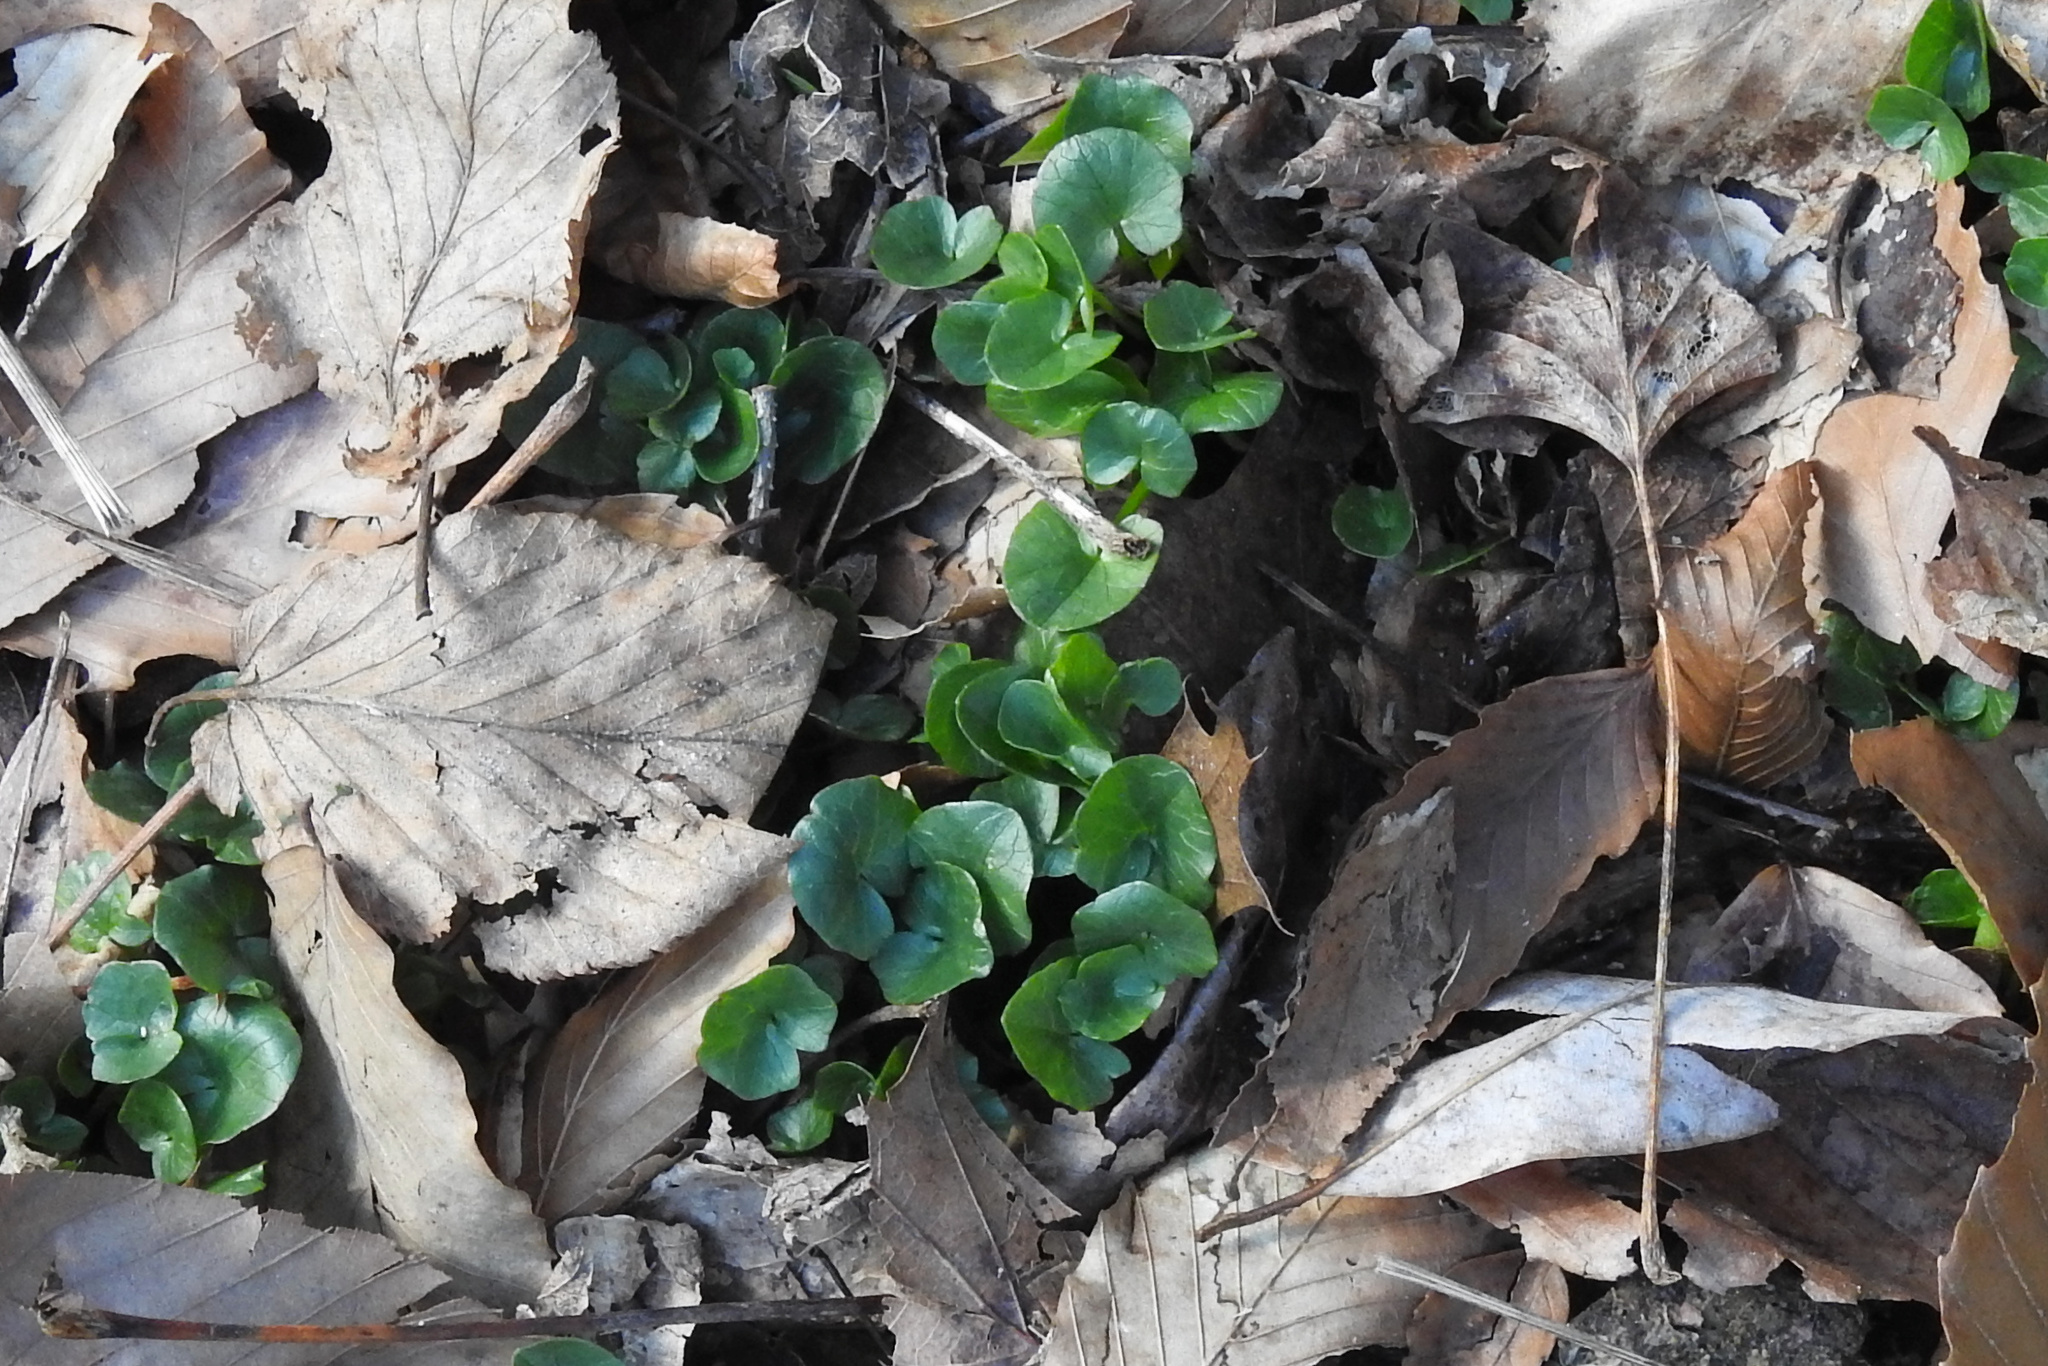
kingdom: Plantae
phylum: Tracheophyta
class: Magnoliopsida
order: Ranunculales
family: Ranunculaceae
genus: Ficaria
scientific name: Ficaria verna
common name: Lesser celandine
